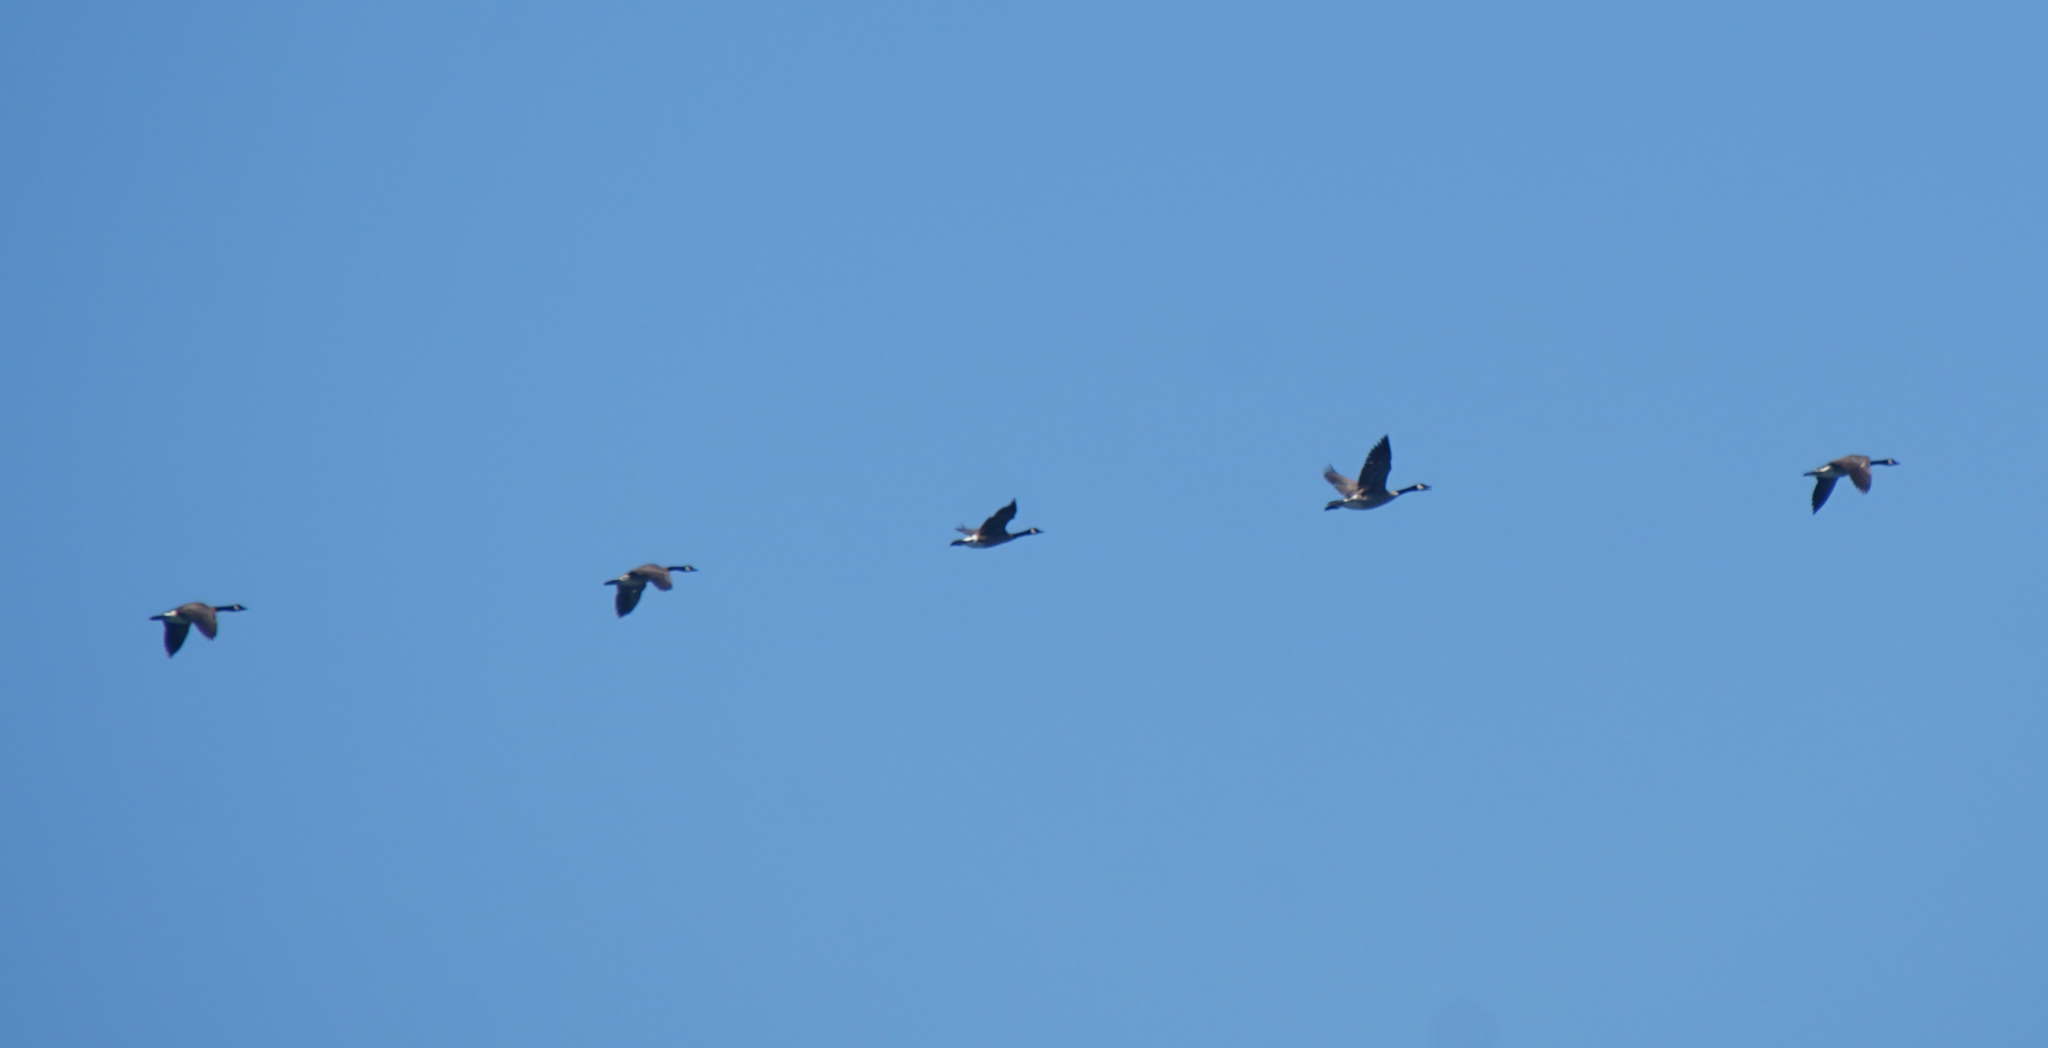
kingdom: Animalia
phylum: Chordata
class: Aves
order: Anseriformes
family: Anatidae
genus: Branta
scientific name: Branta canadensis
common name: Canada goose
